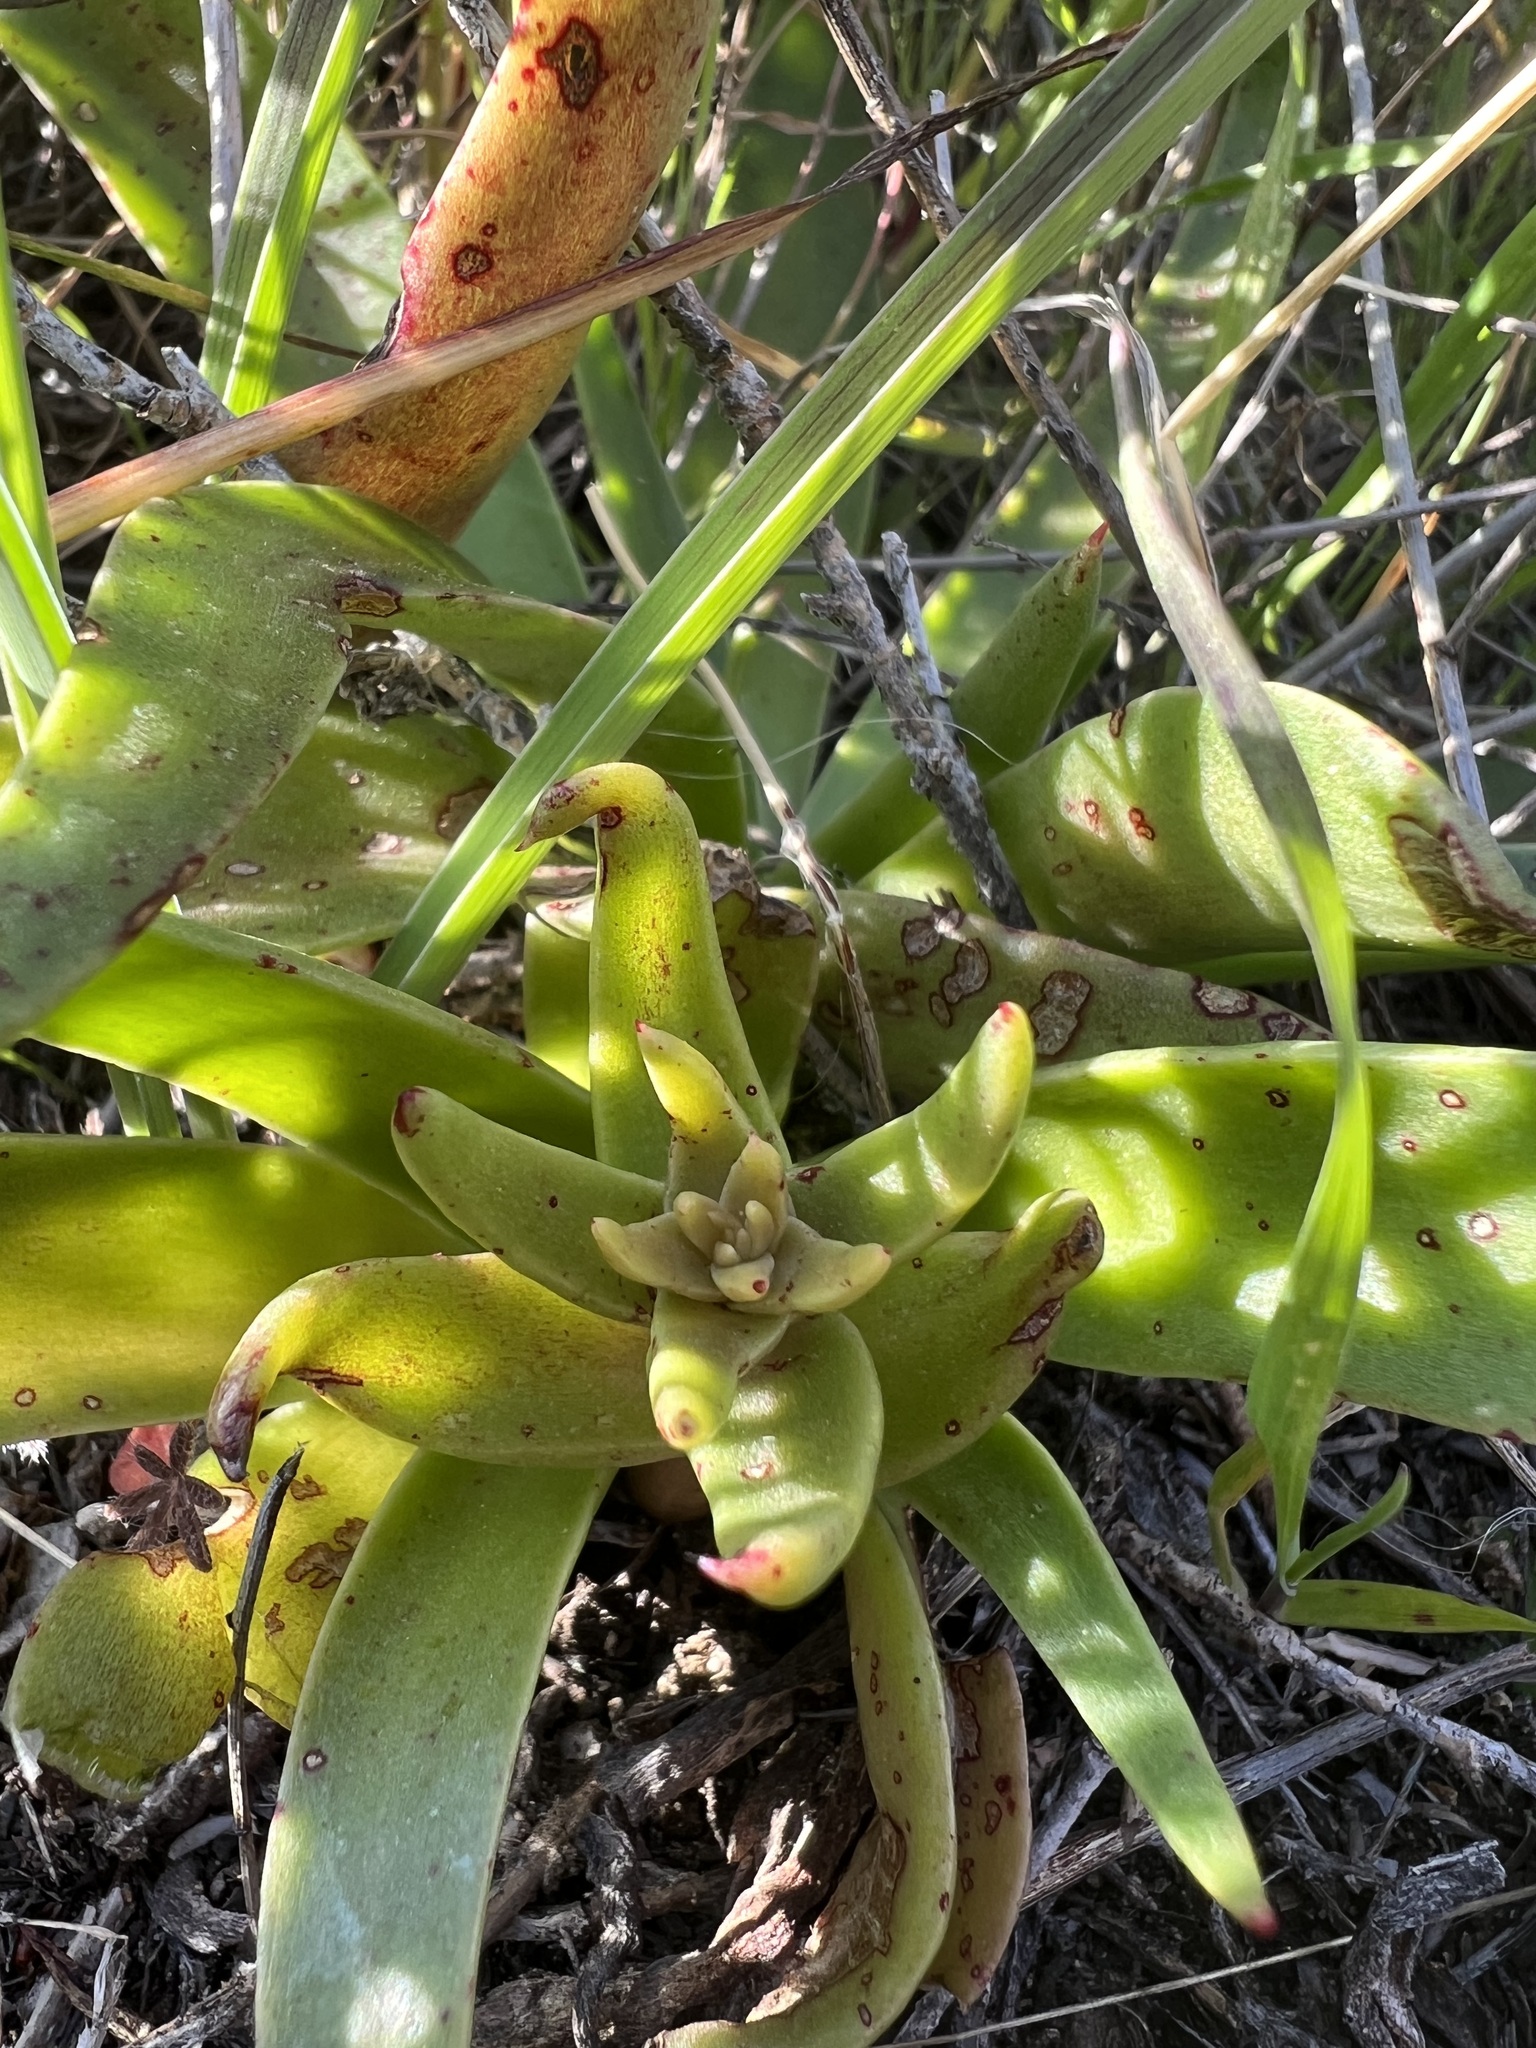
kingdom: Plantae
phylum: Tracheophyta
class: Magnoliopsida
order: Saxifragales
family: Crassulaceae
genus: Dudleya
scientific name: Dudleya lanceolata
